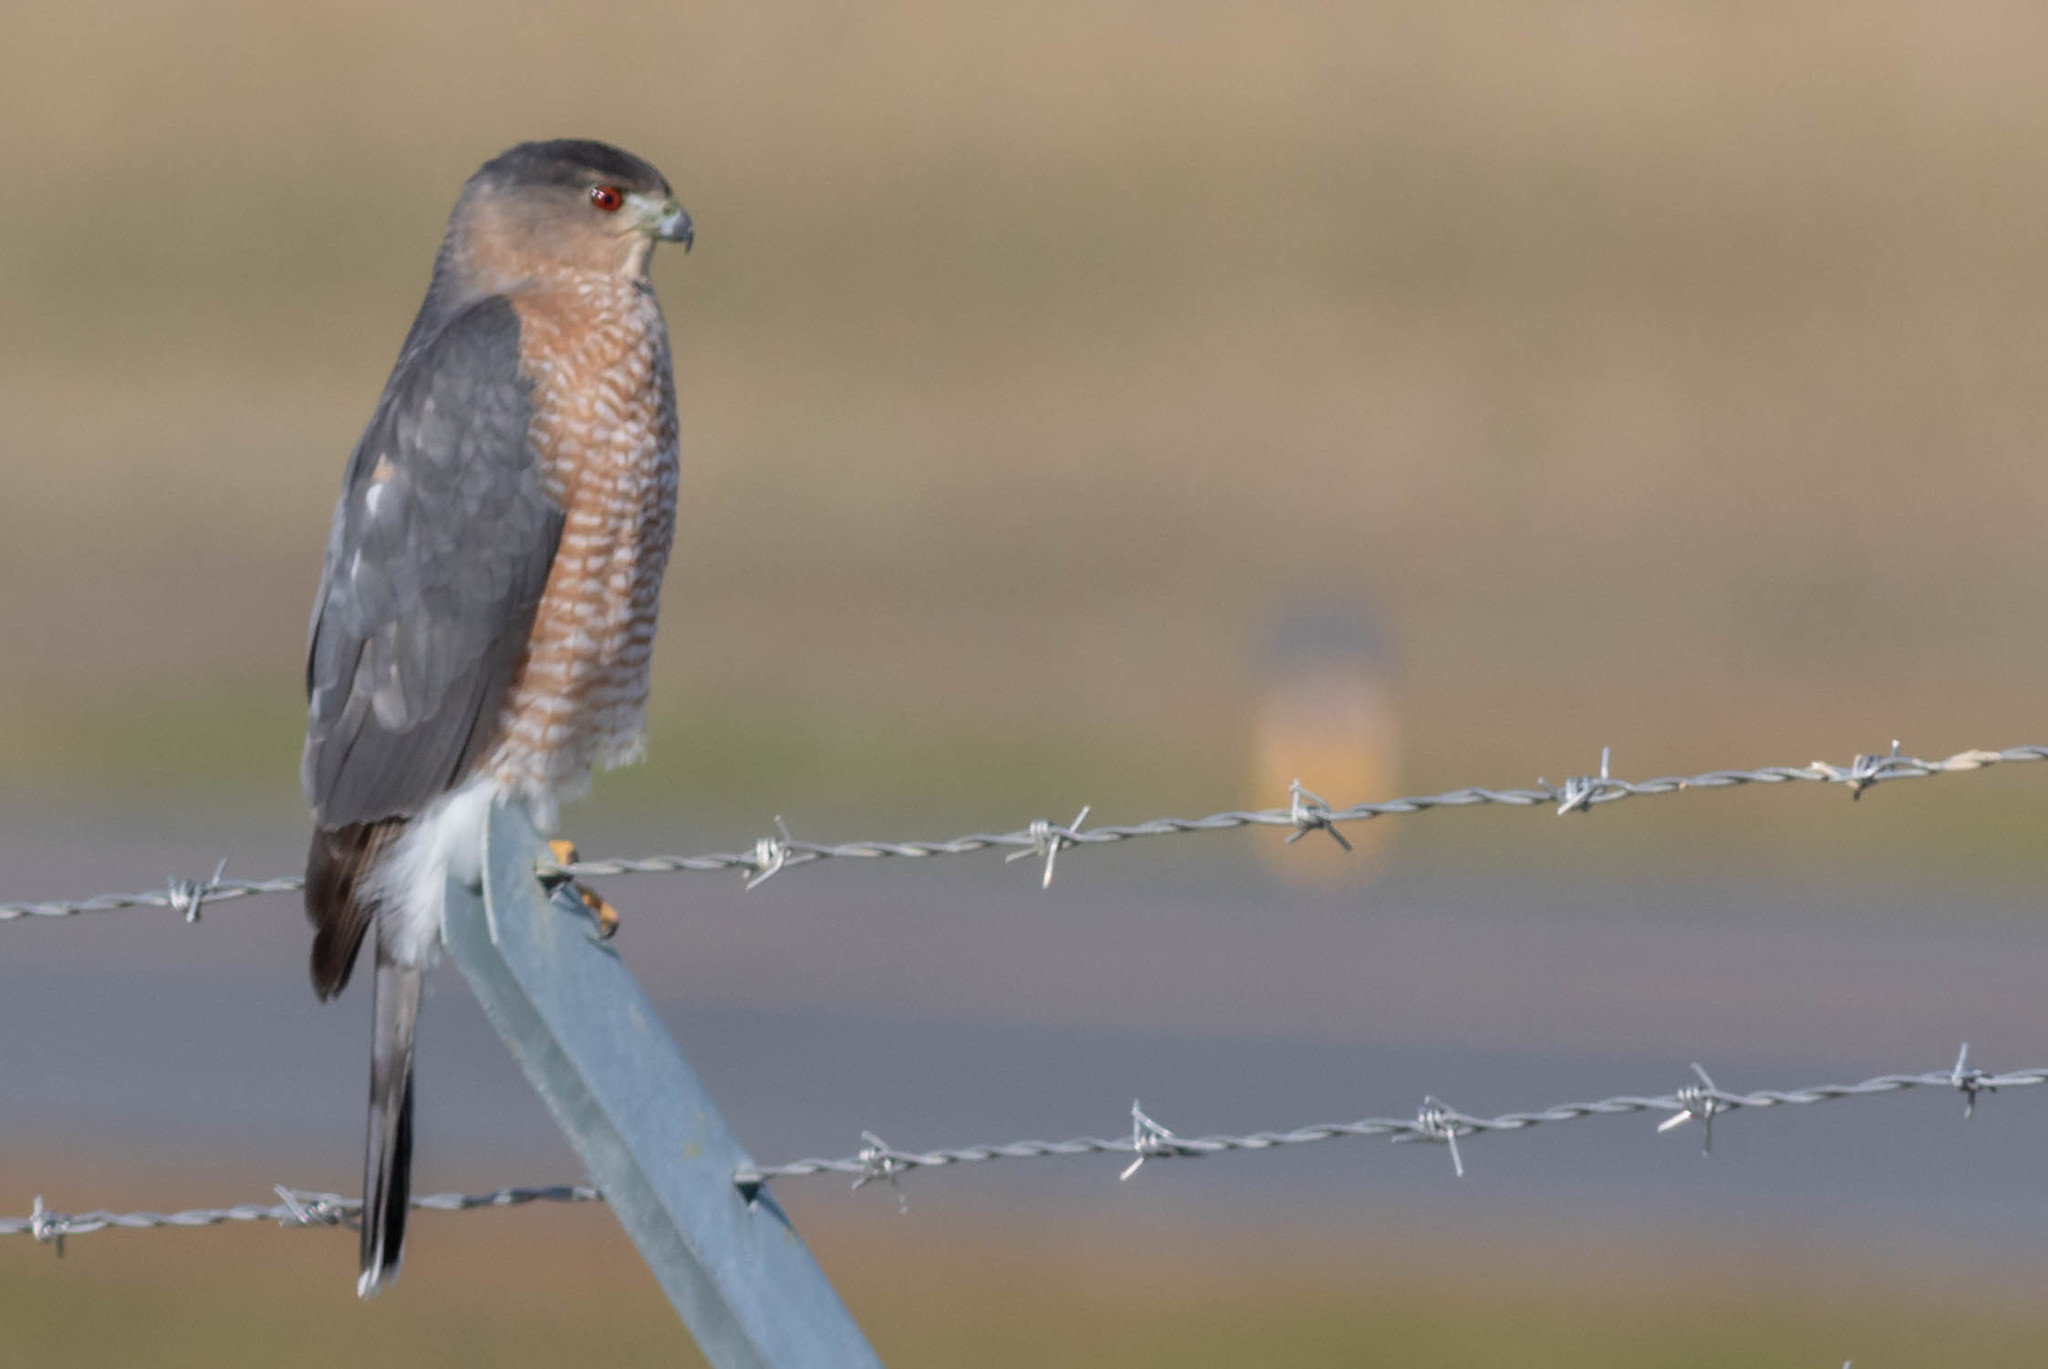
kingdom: Animalia
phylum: Chordata
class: Aves
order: Accipitriformes
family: Accipitridae
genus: Accipiter
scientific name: Accipiter cooperii
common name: Cooper's hawk
